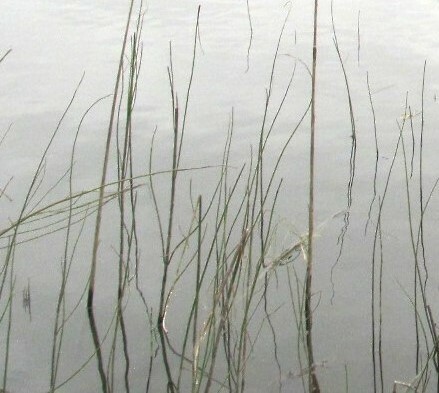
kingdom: Plantae
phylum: Tracheophyta
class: Polypodiopsida
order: Equisetales
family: Equisetaceae
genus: Equisetum
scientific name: Equisetum fluviatile
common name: Water horsetail
